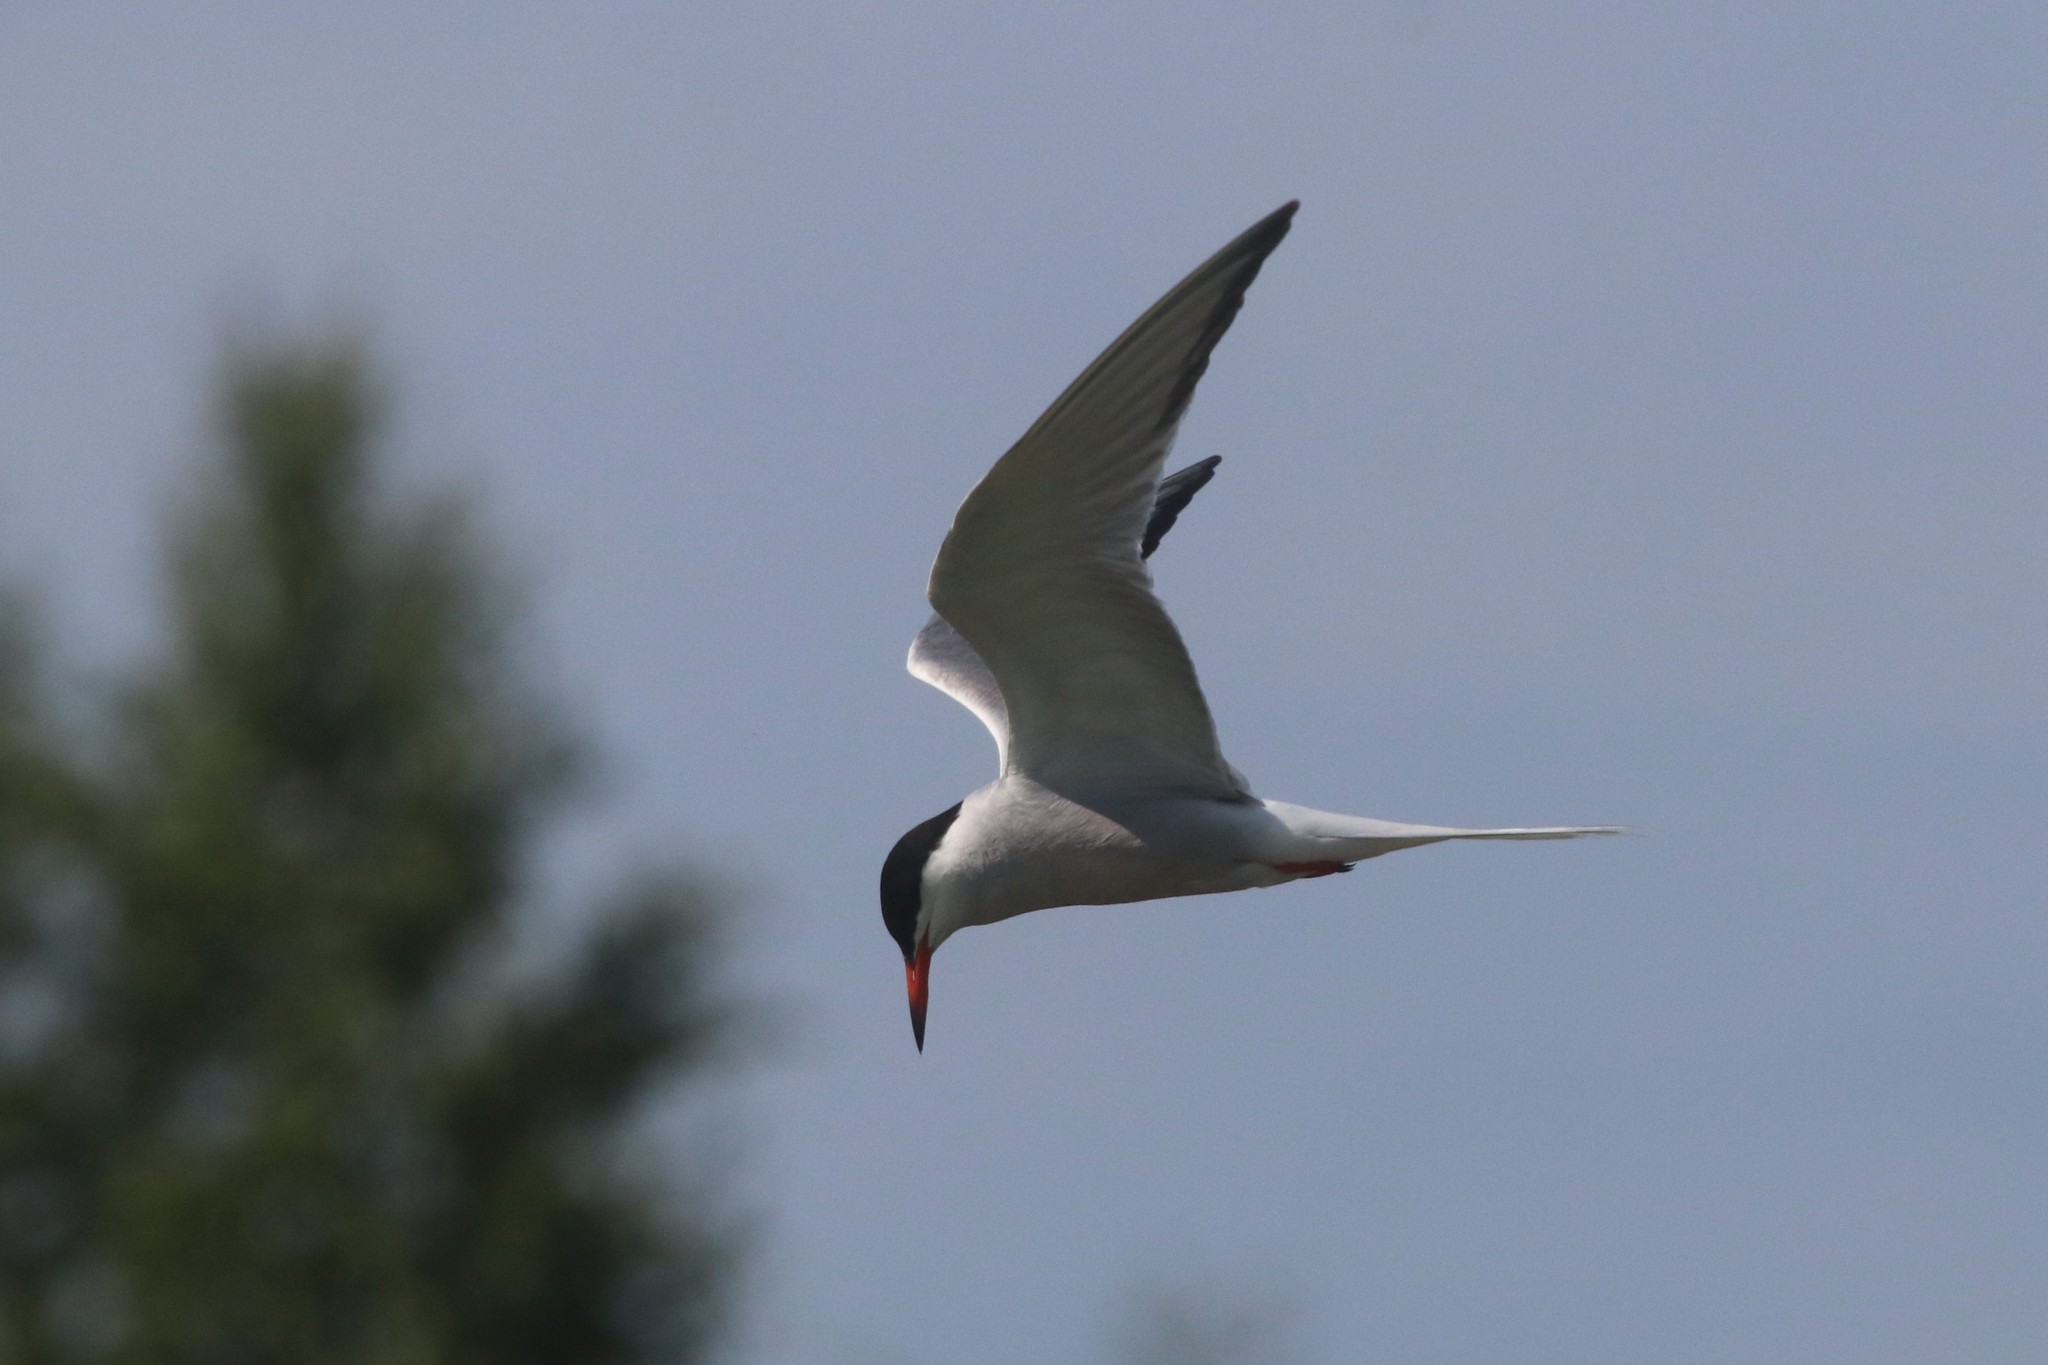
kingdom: Animalia
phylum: Chordata
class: Aves
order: Charadriiformes
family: Laridae
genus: Sterna
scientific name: Sterna hirundo
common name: Common tern
